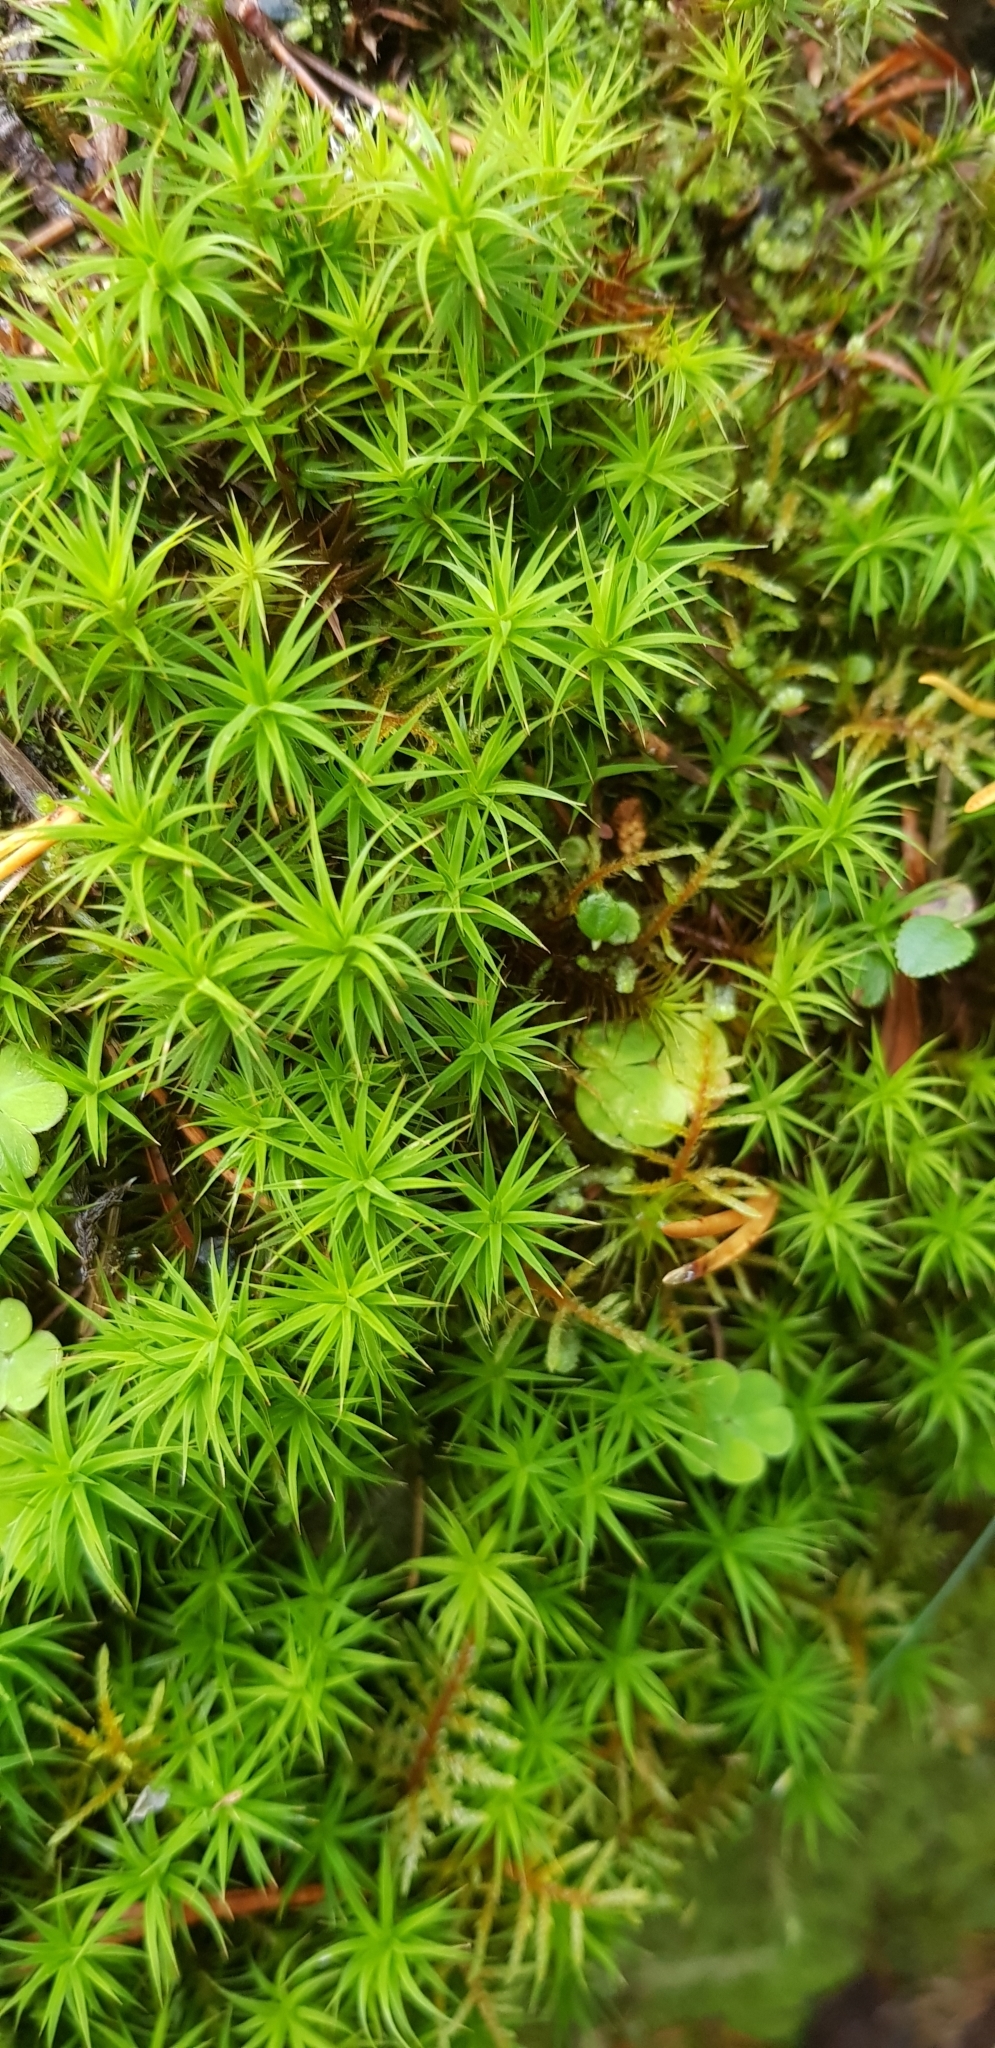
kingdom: Plantae
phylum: Bryophyta
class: Polytrichopsida
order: Polytrichales
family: Polytrichaceae
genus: Polytrichum
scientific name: Polytrichum commune
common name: Common haircap
